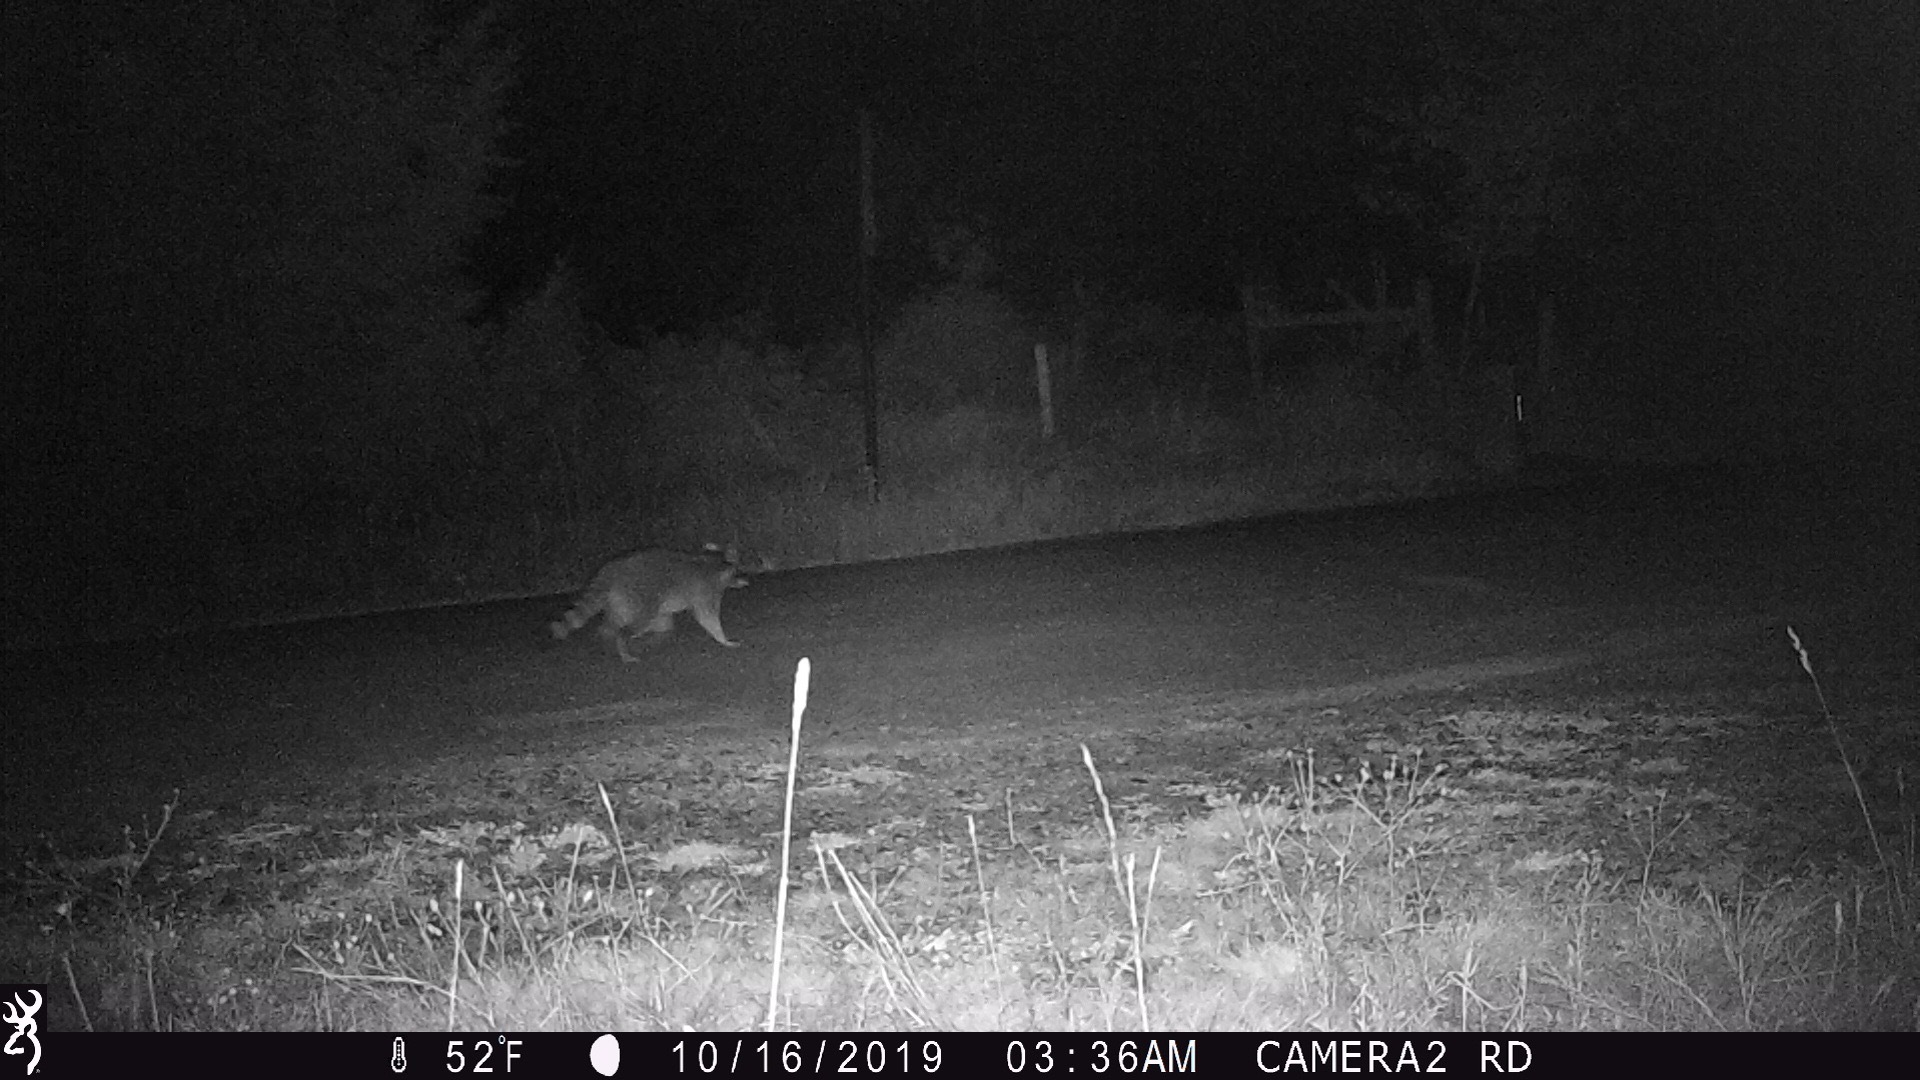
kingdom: Animalia
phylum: Chordata
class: Mammalia
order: Carnivora
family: Procyonidae
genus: Procyon
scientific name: Procyon lotor
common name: Raccoon
